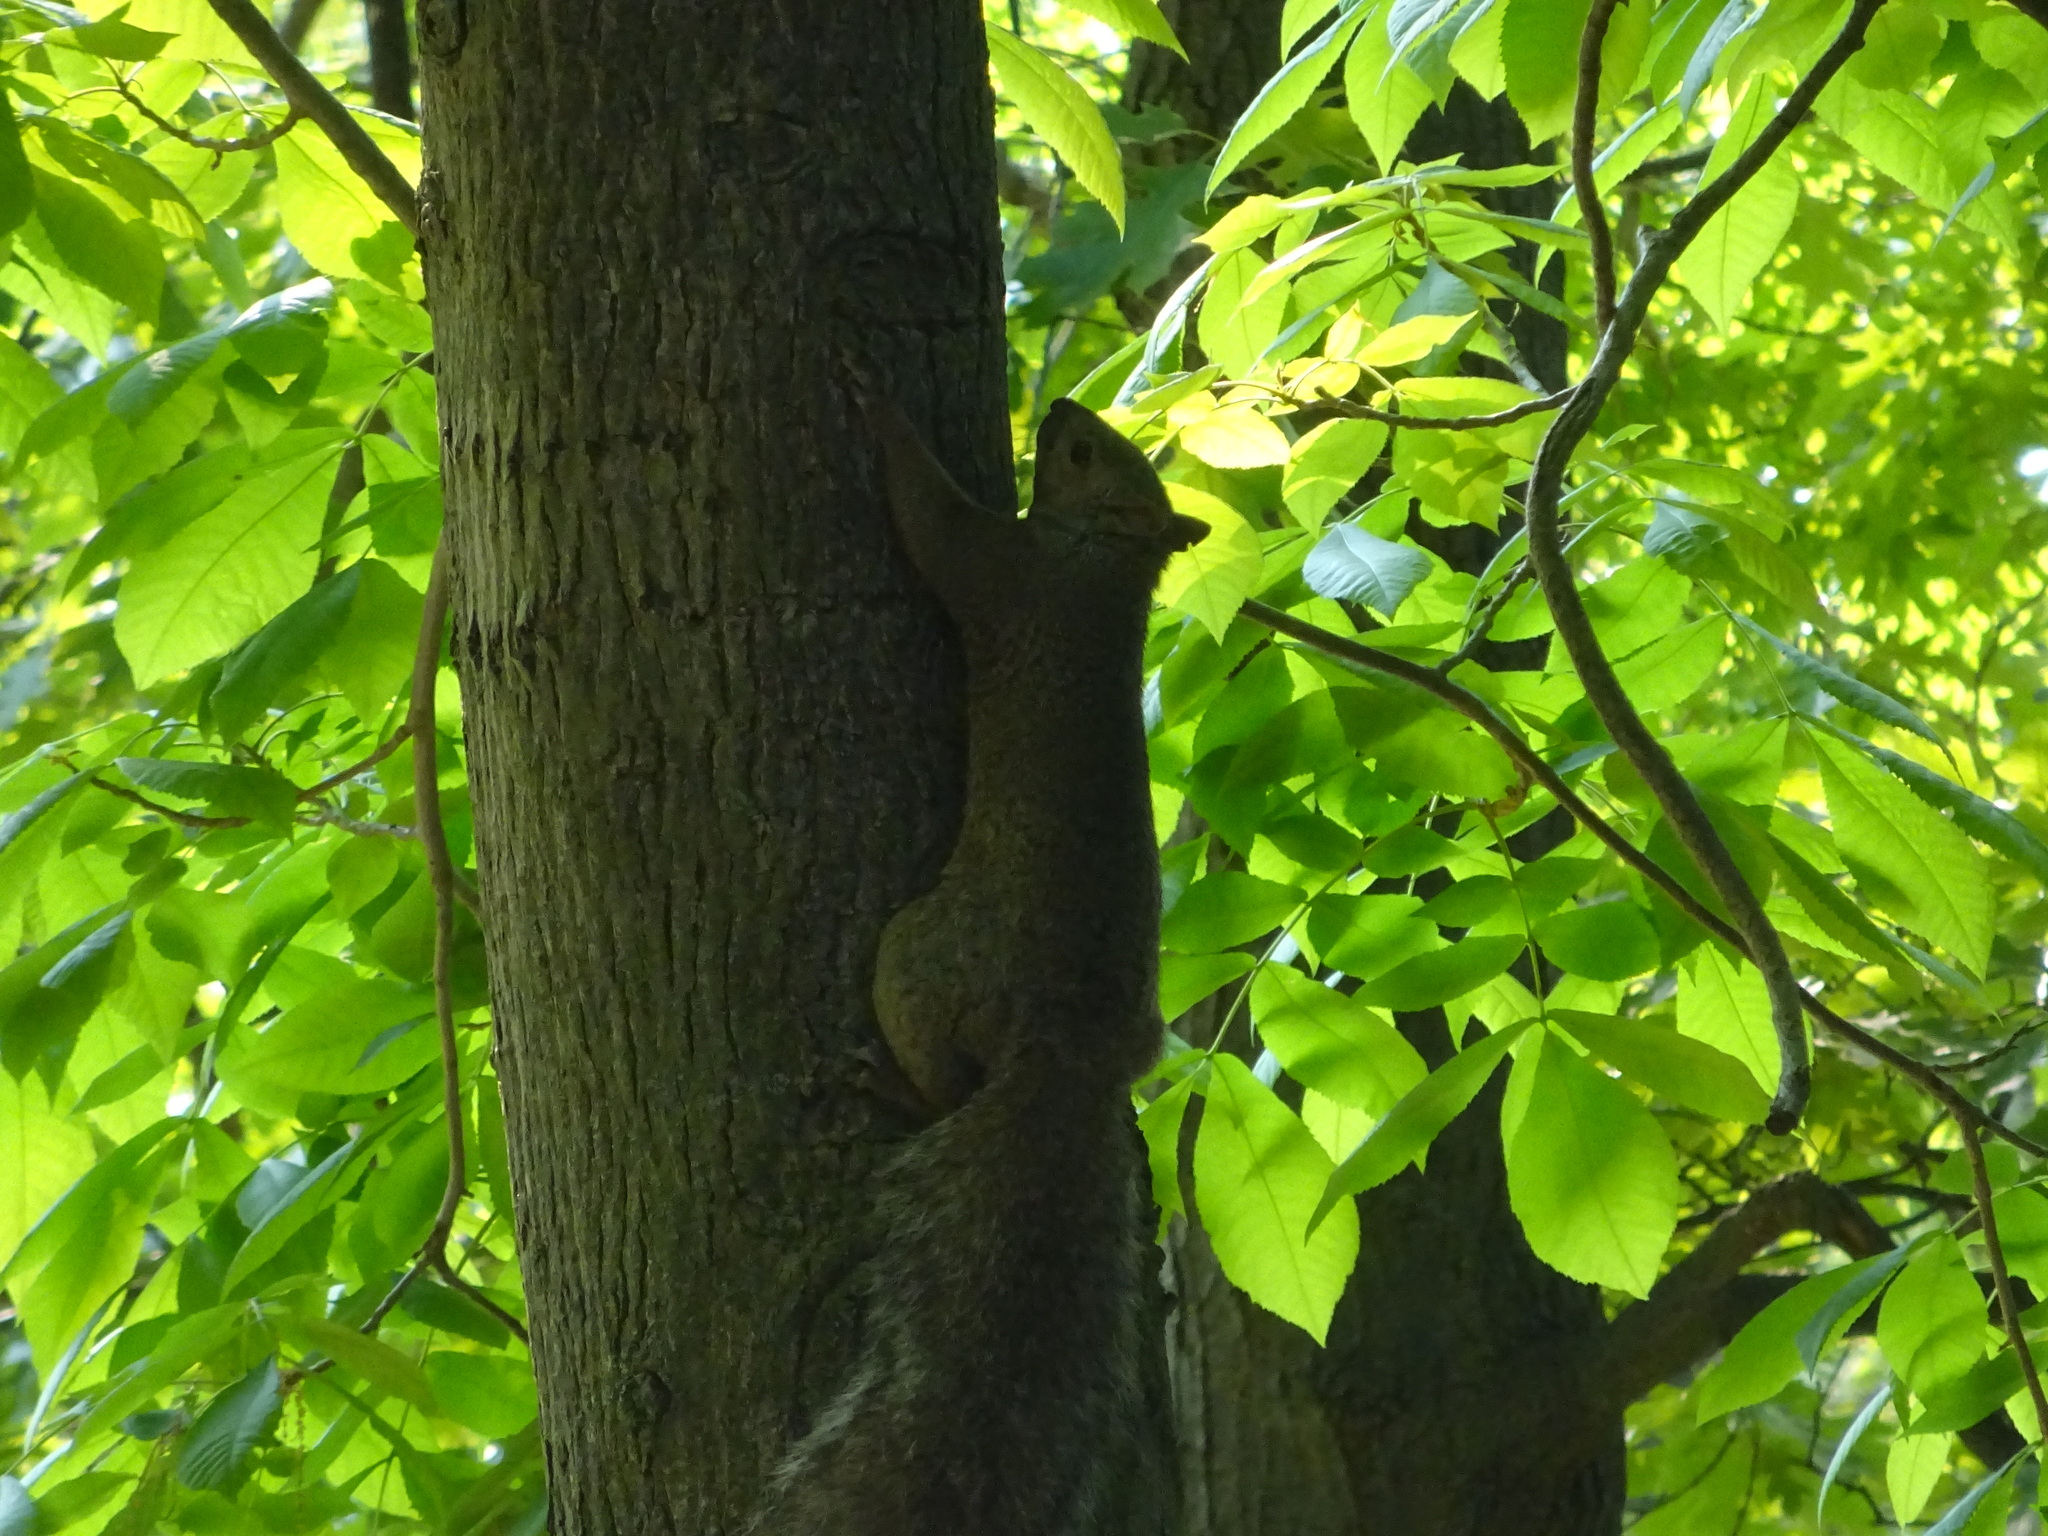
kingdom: Animalia
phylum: Chordata
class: Mammalia
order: Rodentia
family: Sciuridae
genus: Sciurus
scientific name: Sciurus carolinensis
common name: Eastern gray squirrel
